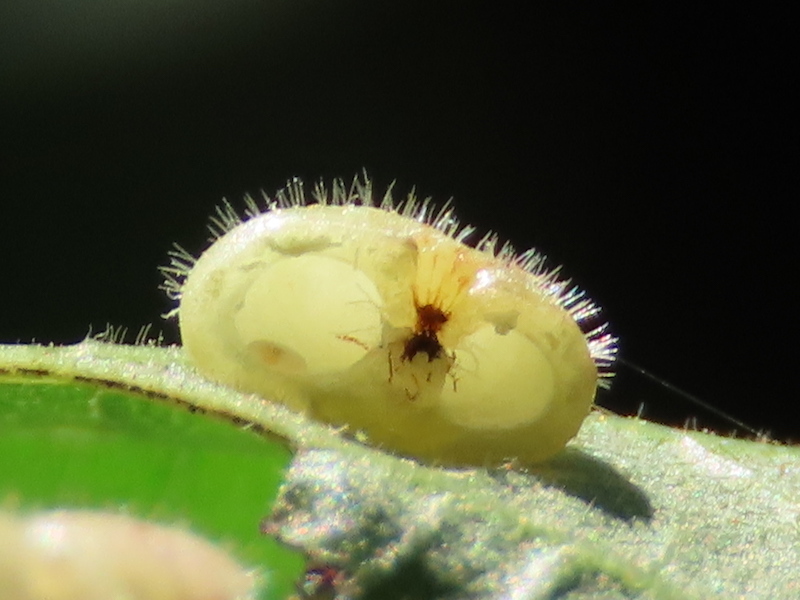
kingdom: Animalia
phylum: Arthropoda
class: Insecta
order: Diptera
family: Cecidomyiidae
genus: Caryomyia
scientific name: Caryomyia thompsoni
